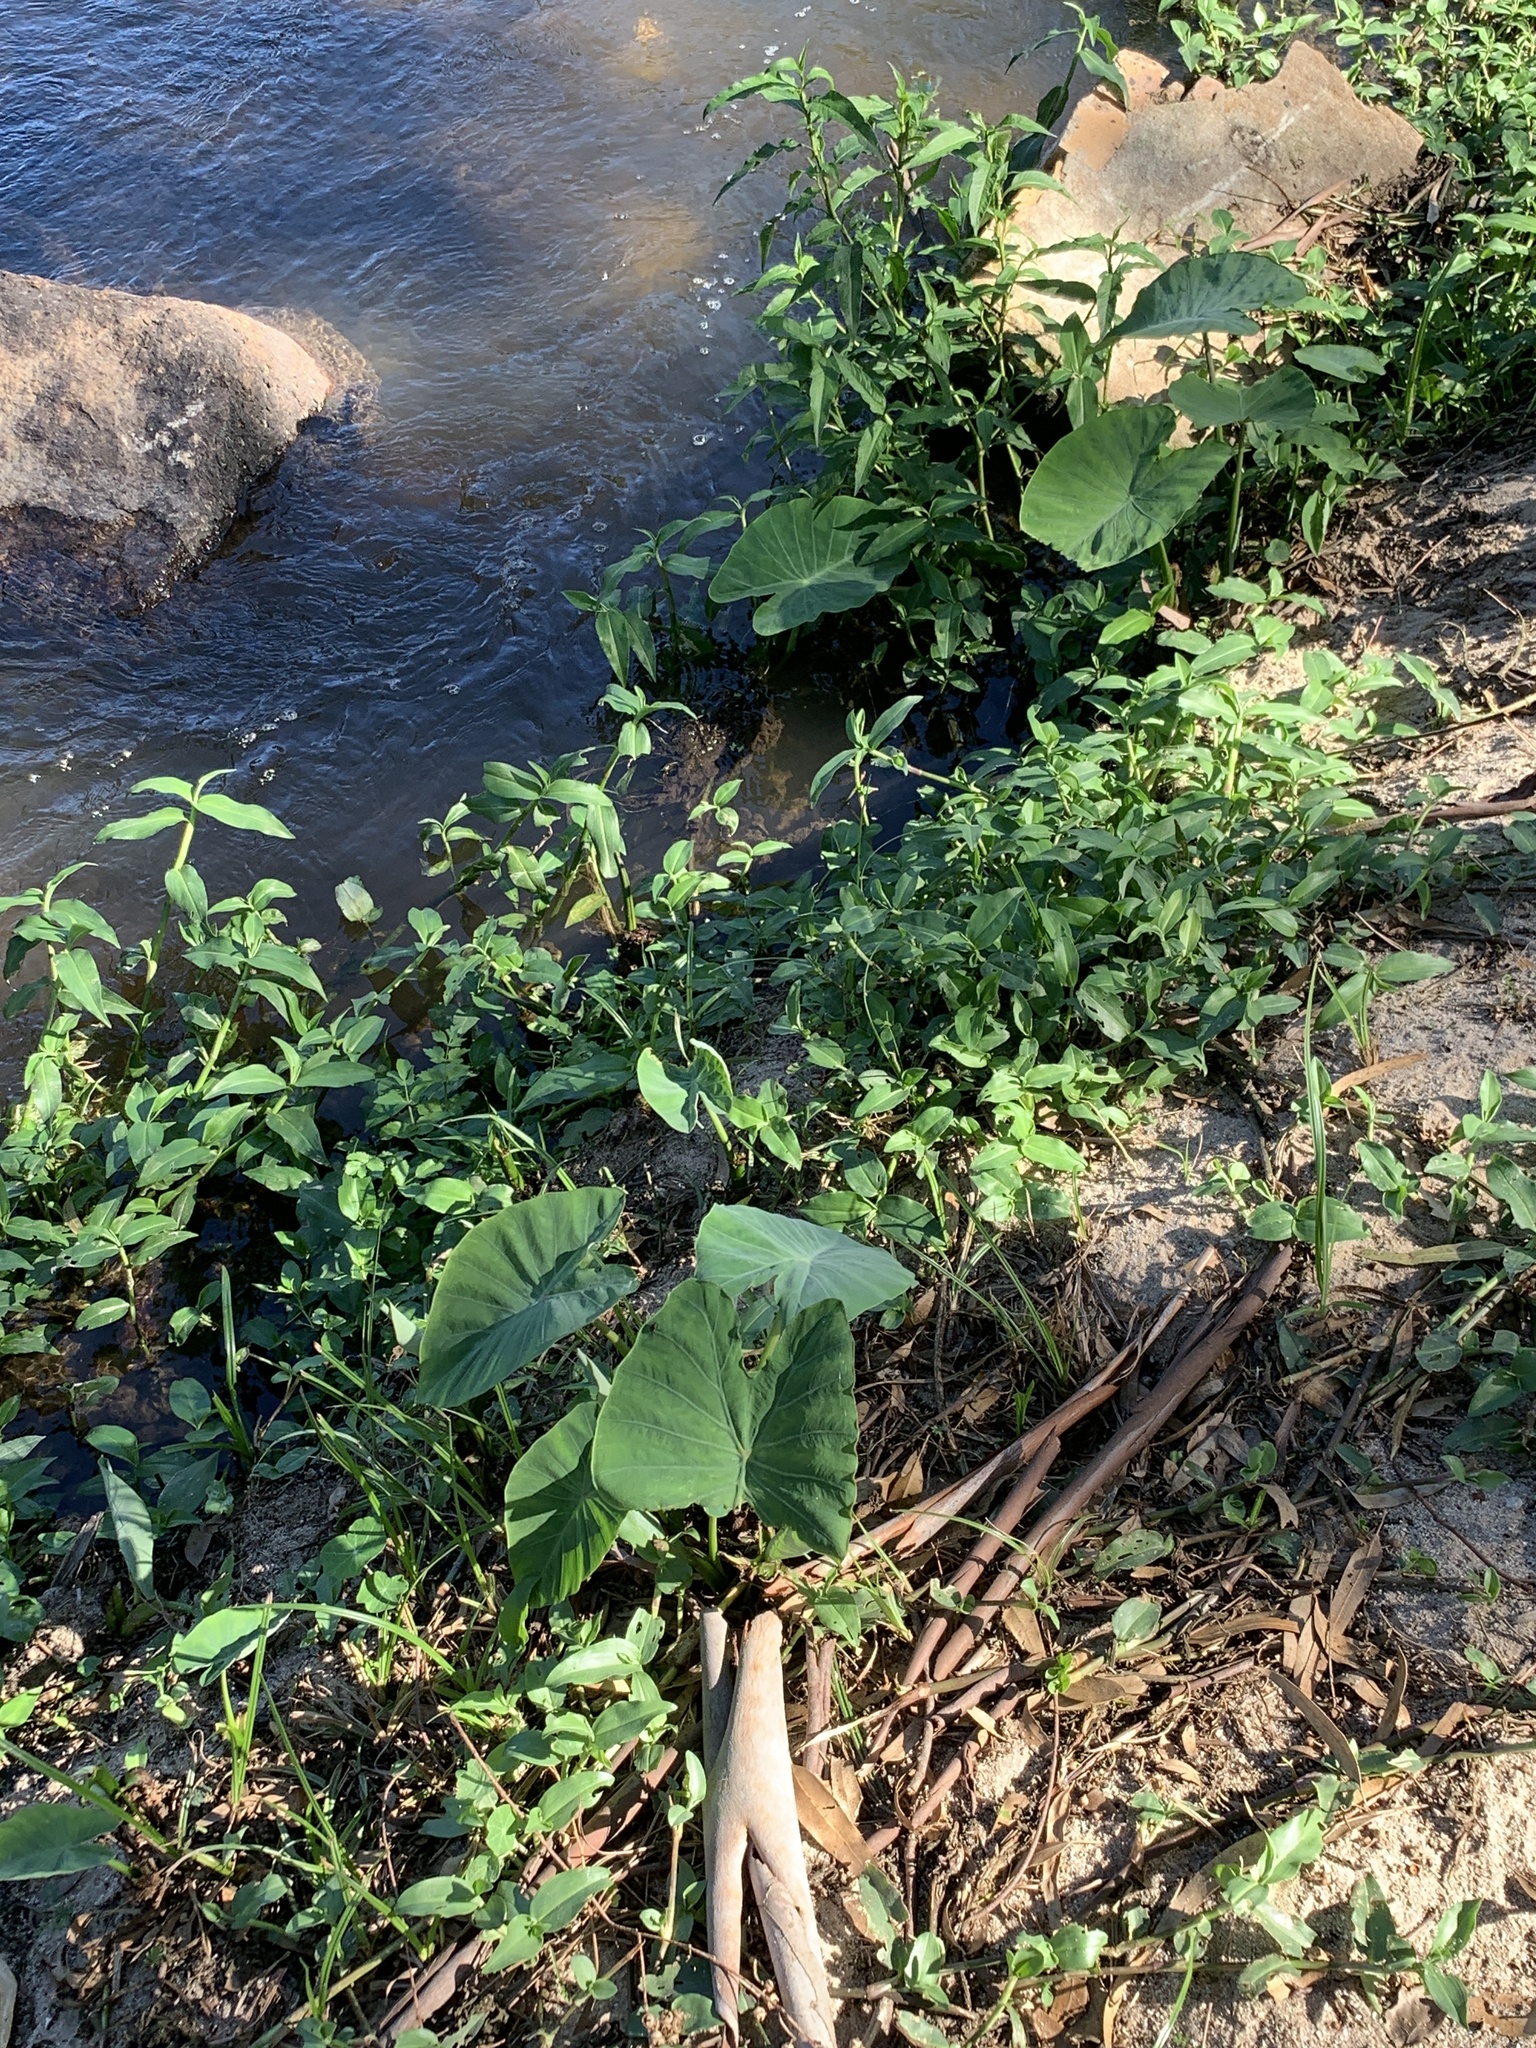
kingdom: Plantae
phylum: Tracheophyta
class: Liliopsida
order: Alismatales
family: Araceae
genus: Colocasia
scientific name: Colocasia esculenta
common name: Taro
